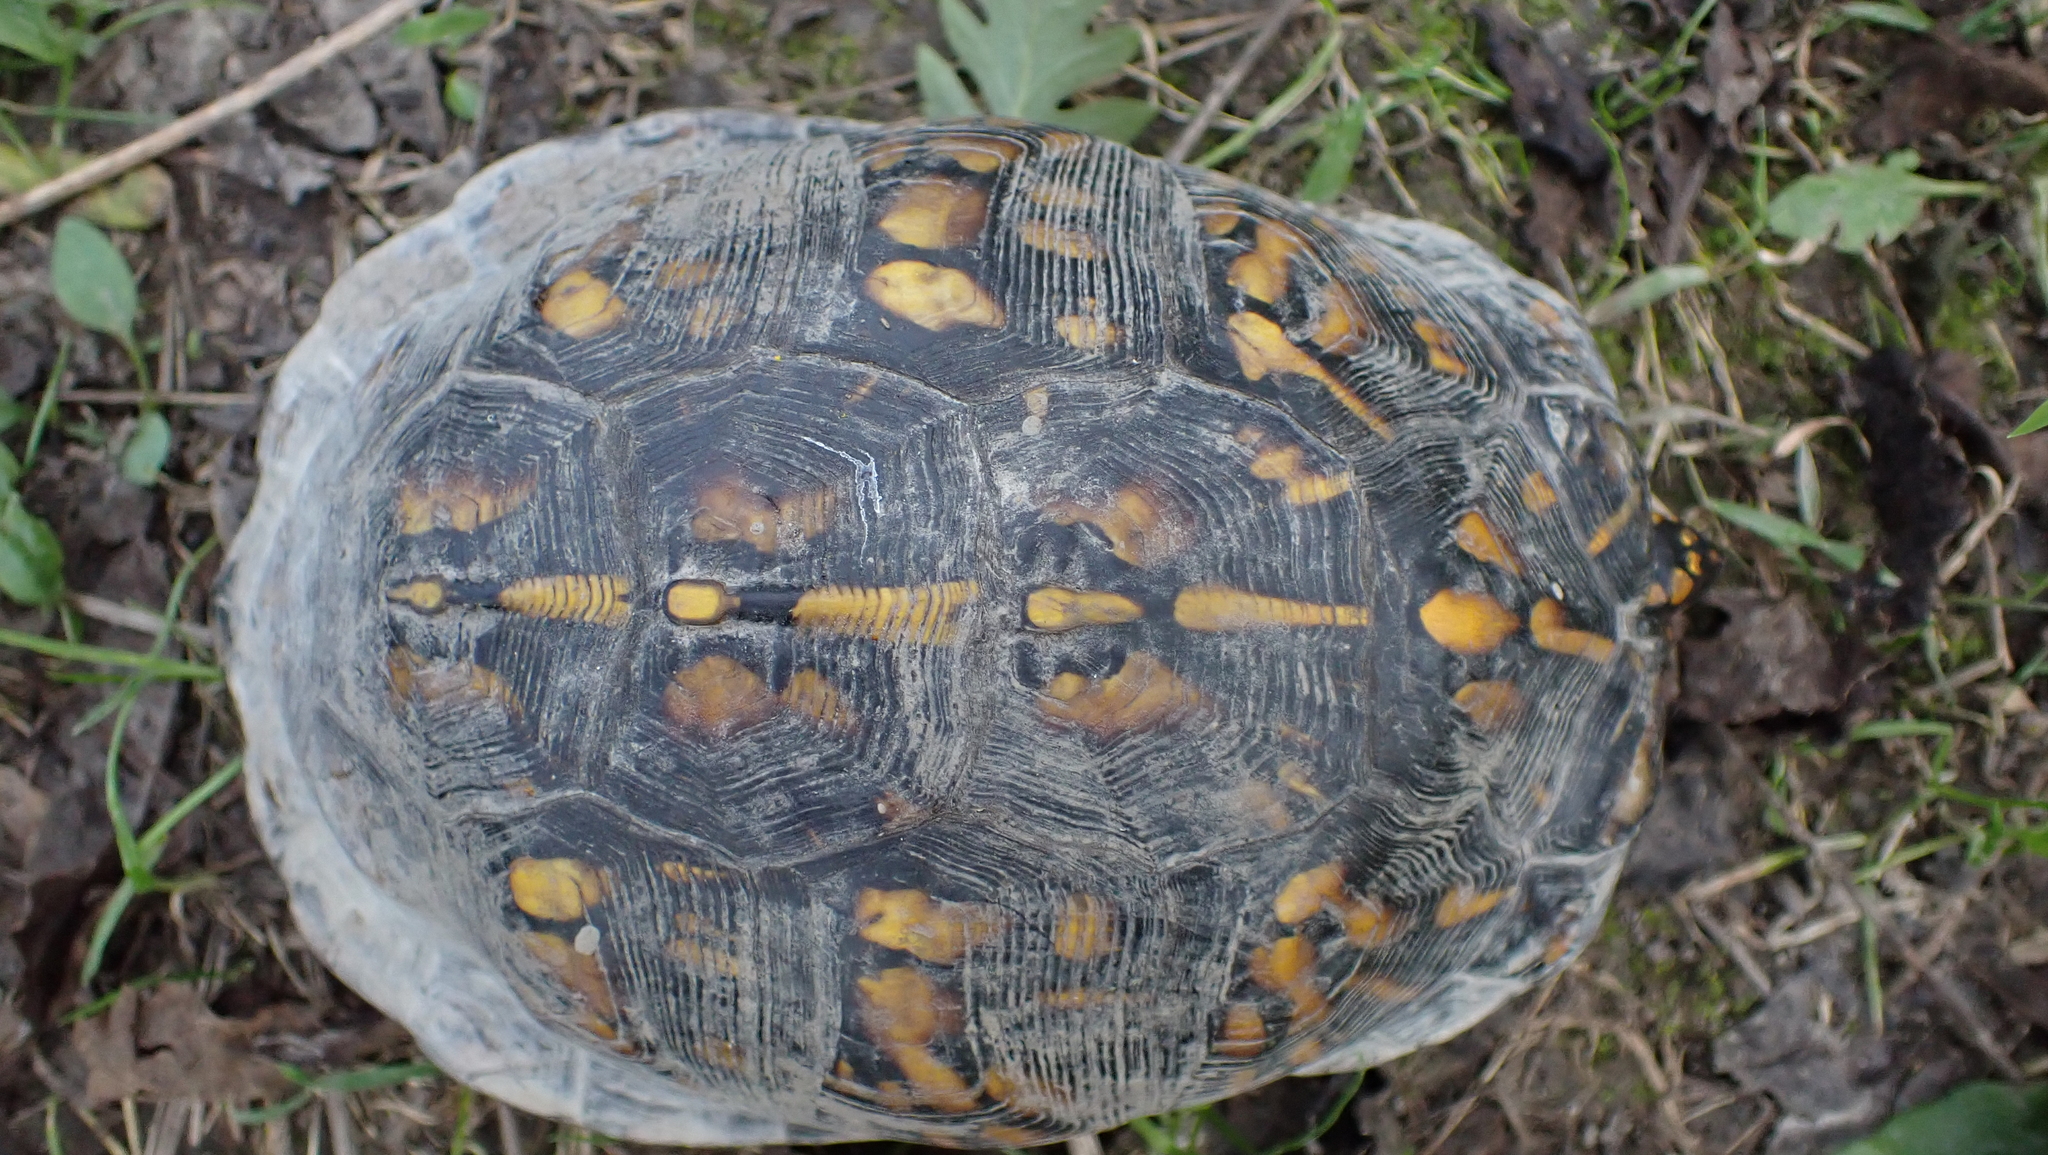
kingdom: Animalia
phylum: Chordata
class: Testudines
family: Emydidae
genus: Terrapene
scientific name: Terrapene carolina
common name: Common box turtle
